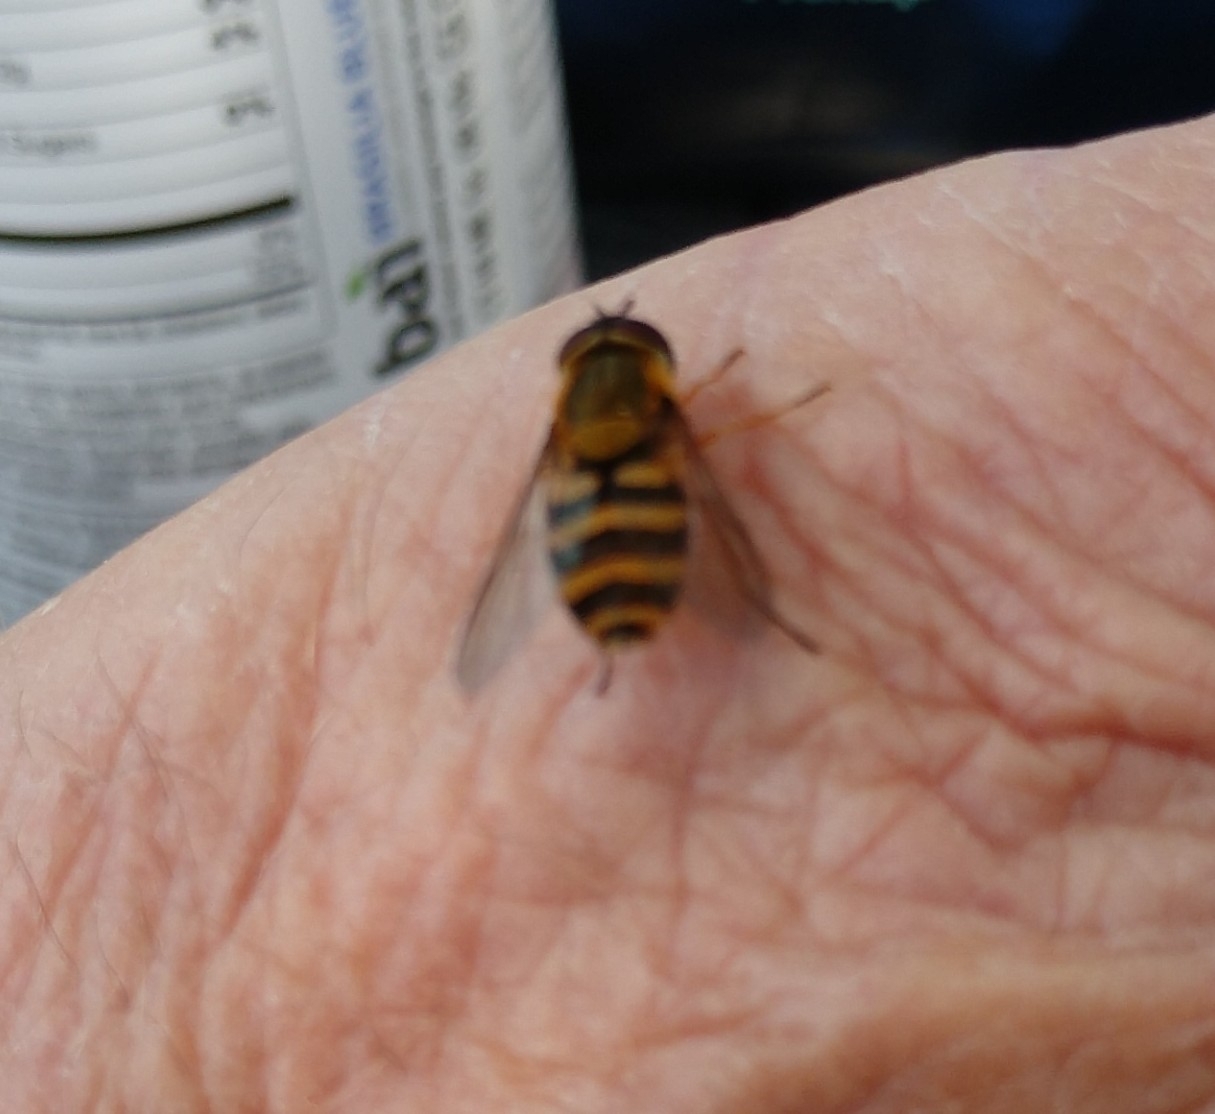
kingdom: Animalia
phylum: Arthropoda
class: Insecta
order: Diptera
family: Syrphidae
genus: Syrphus
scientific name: Syrphus
